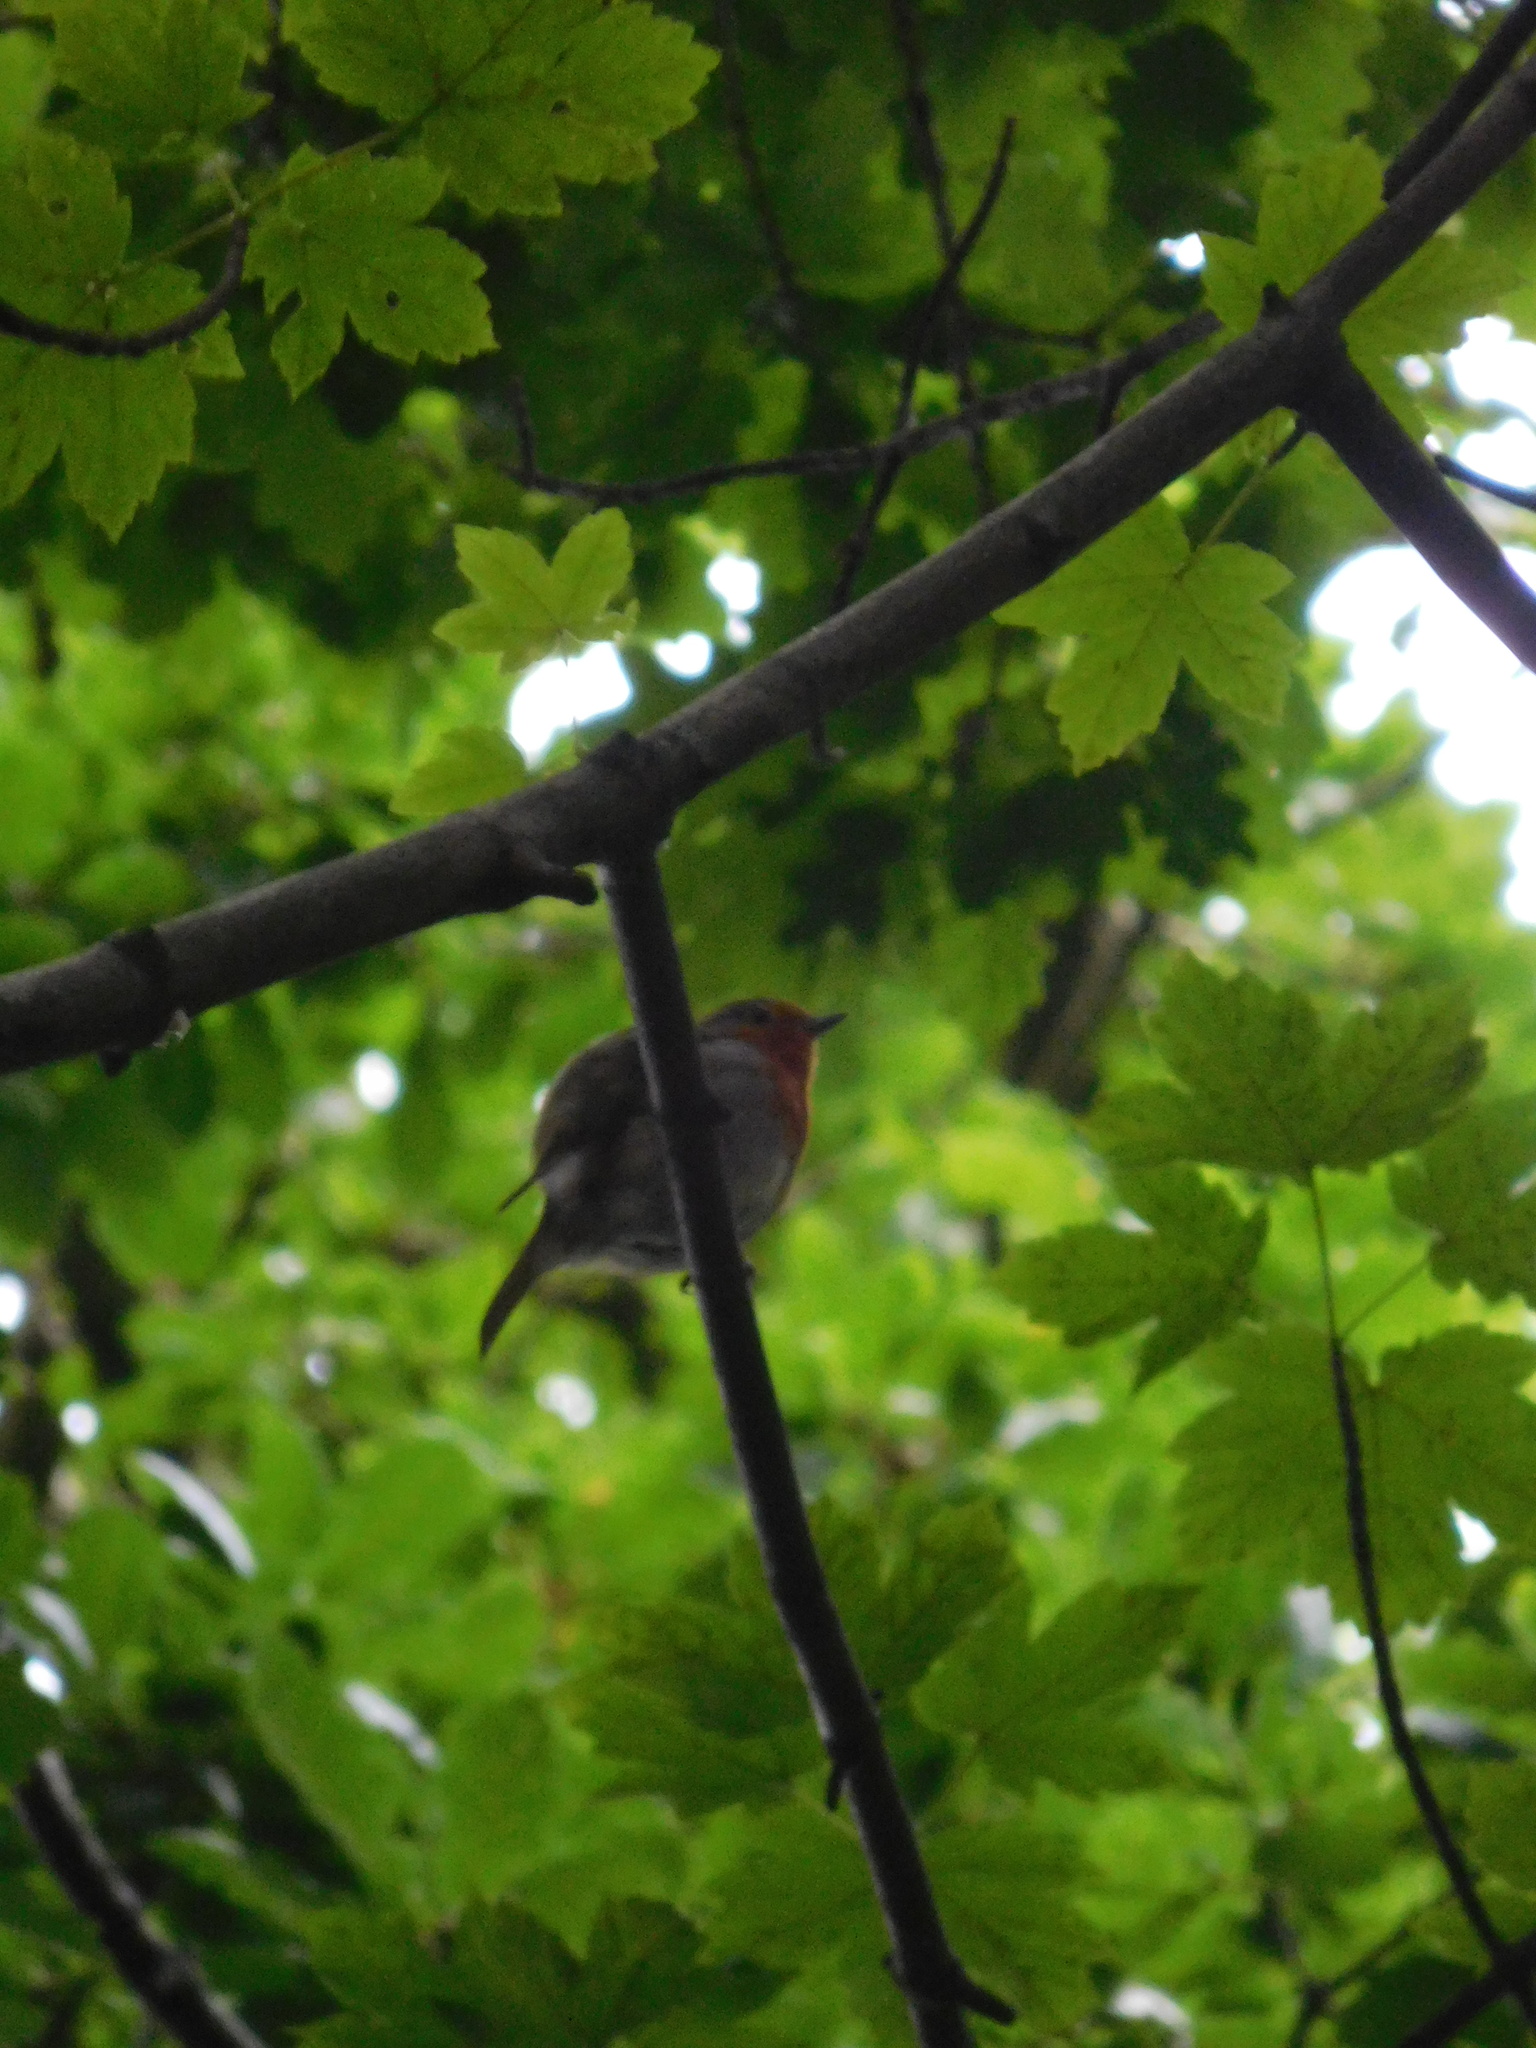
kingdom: Animalia
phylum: Chordata
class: Aves
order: Passeriformes
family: Muscicapidae
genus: Erithacus
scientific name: Erithacus rubecula
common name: European robin
